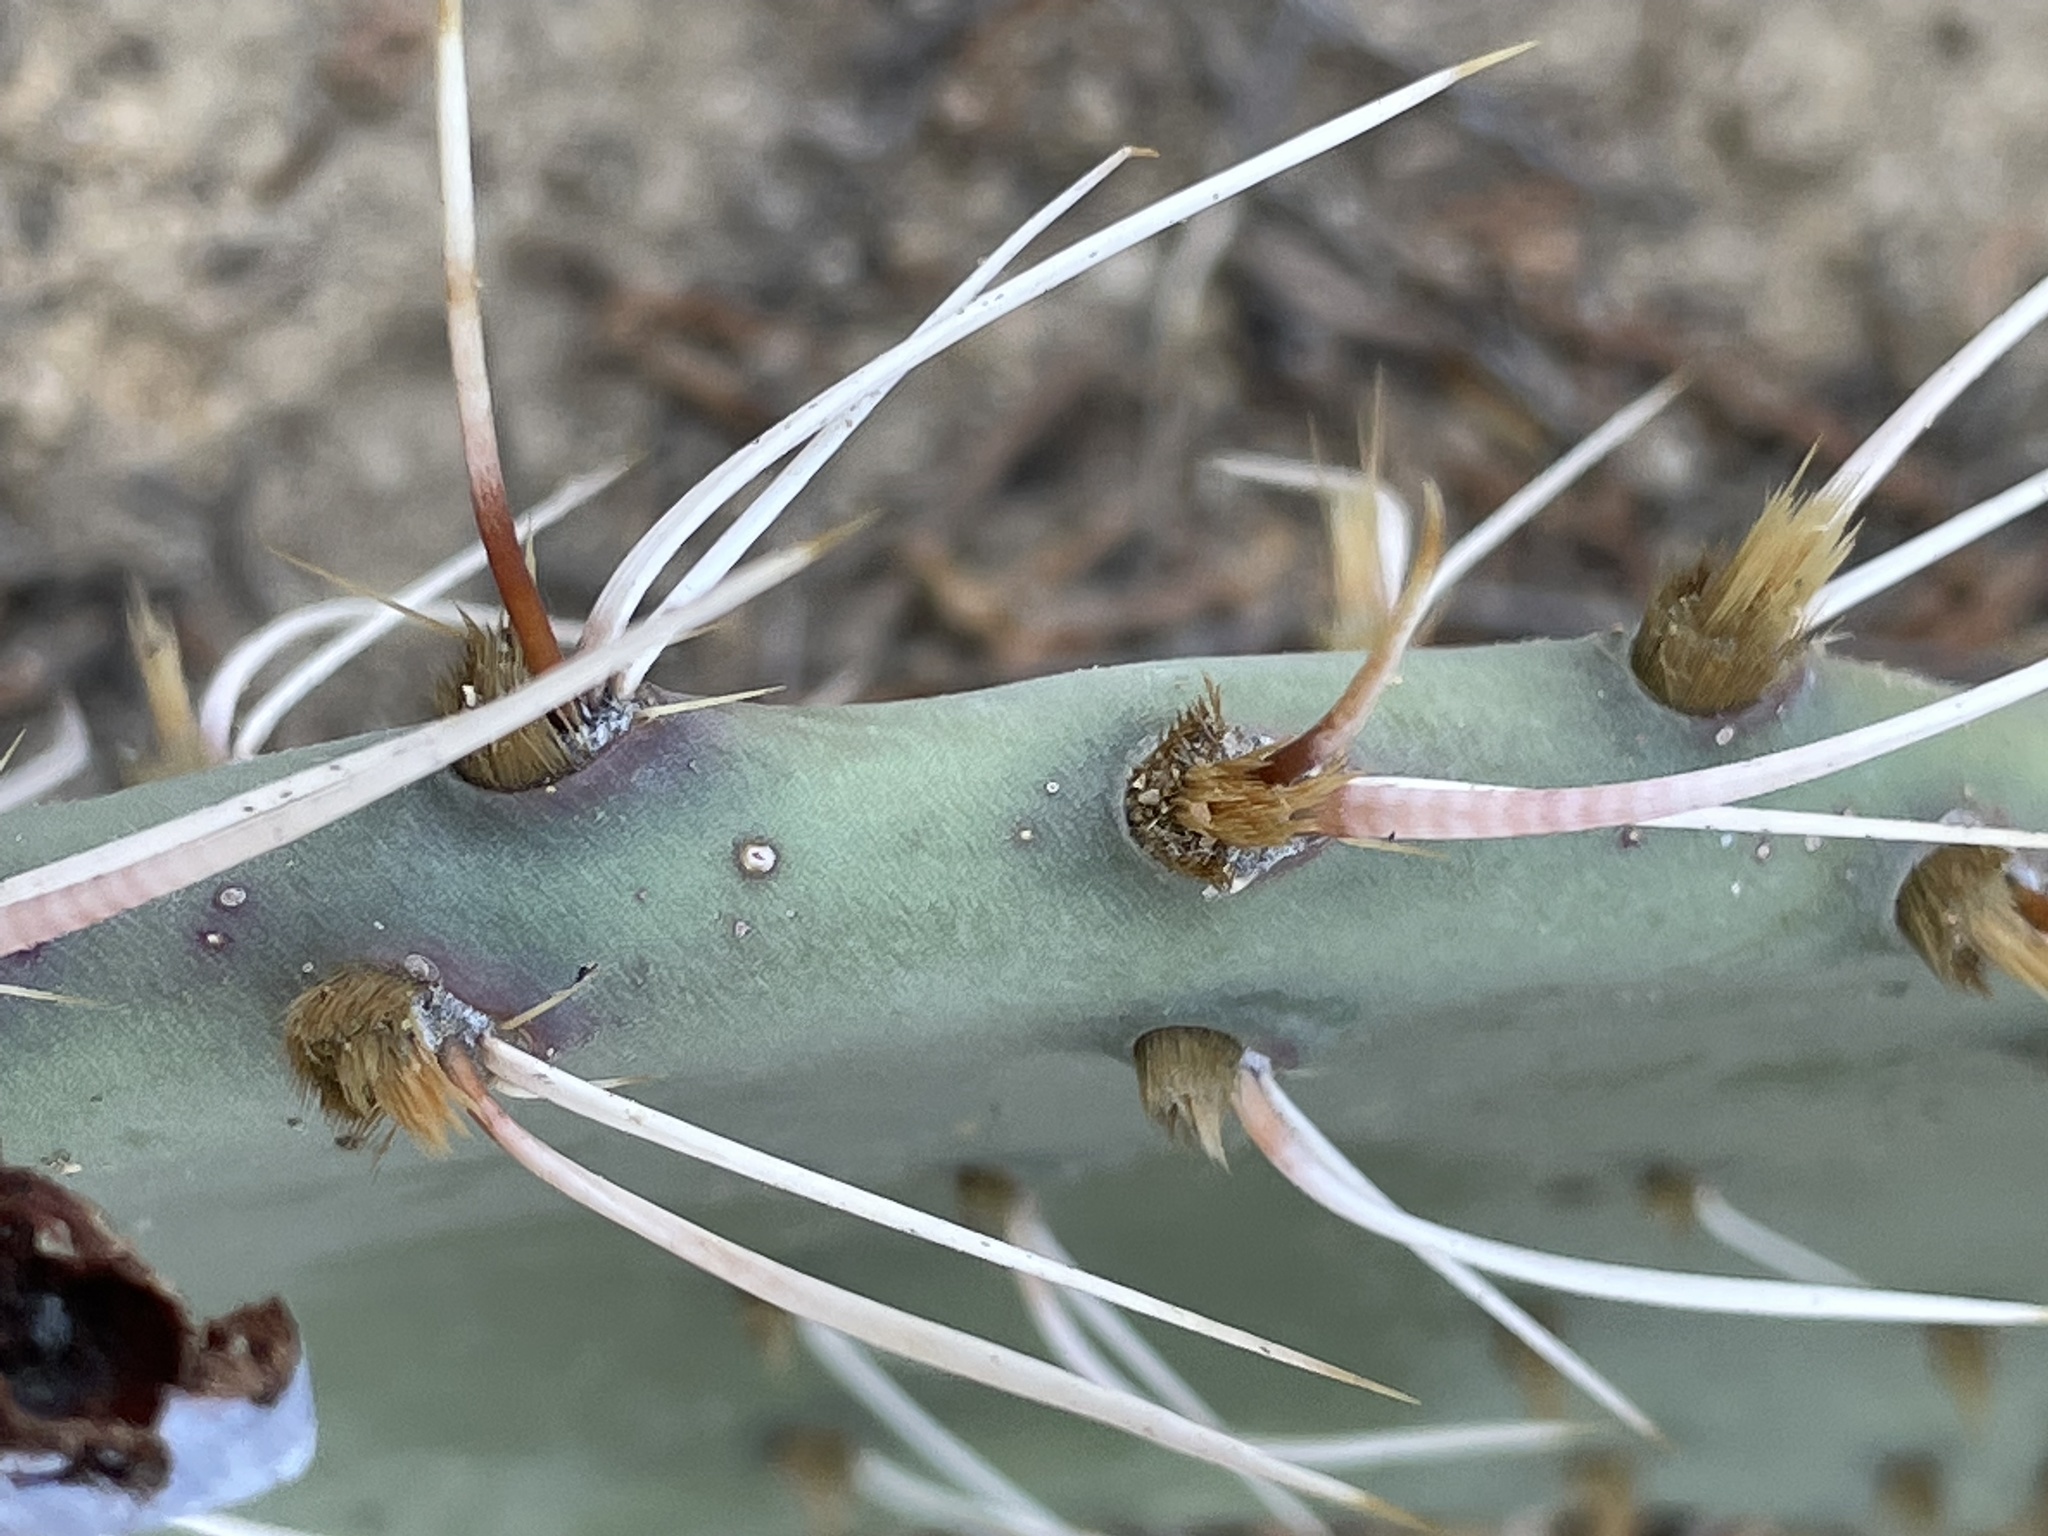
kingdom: Plantae
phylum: Tracheophyta
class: Magnoliopsida
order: Caryophyllales
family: Cactaceae
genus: Opuntia
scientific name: Opuntia phaeacantha
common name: New mexico prickly-pear
